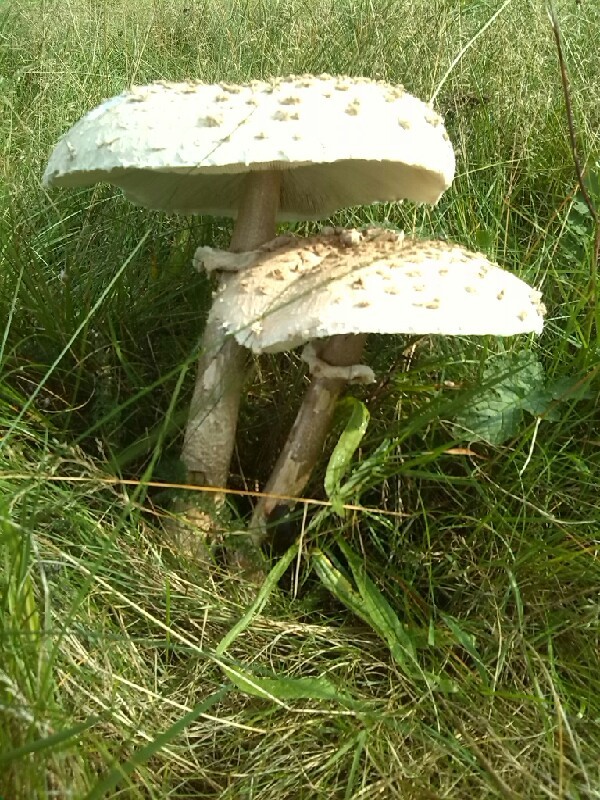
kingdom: Fungi
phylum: Basidiomycota
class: Agaricomycetes
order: Agaricales
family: Agaricaceae
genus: Macrolepiota
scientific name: Macrolepiota procera
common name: Parasol
